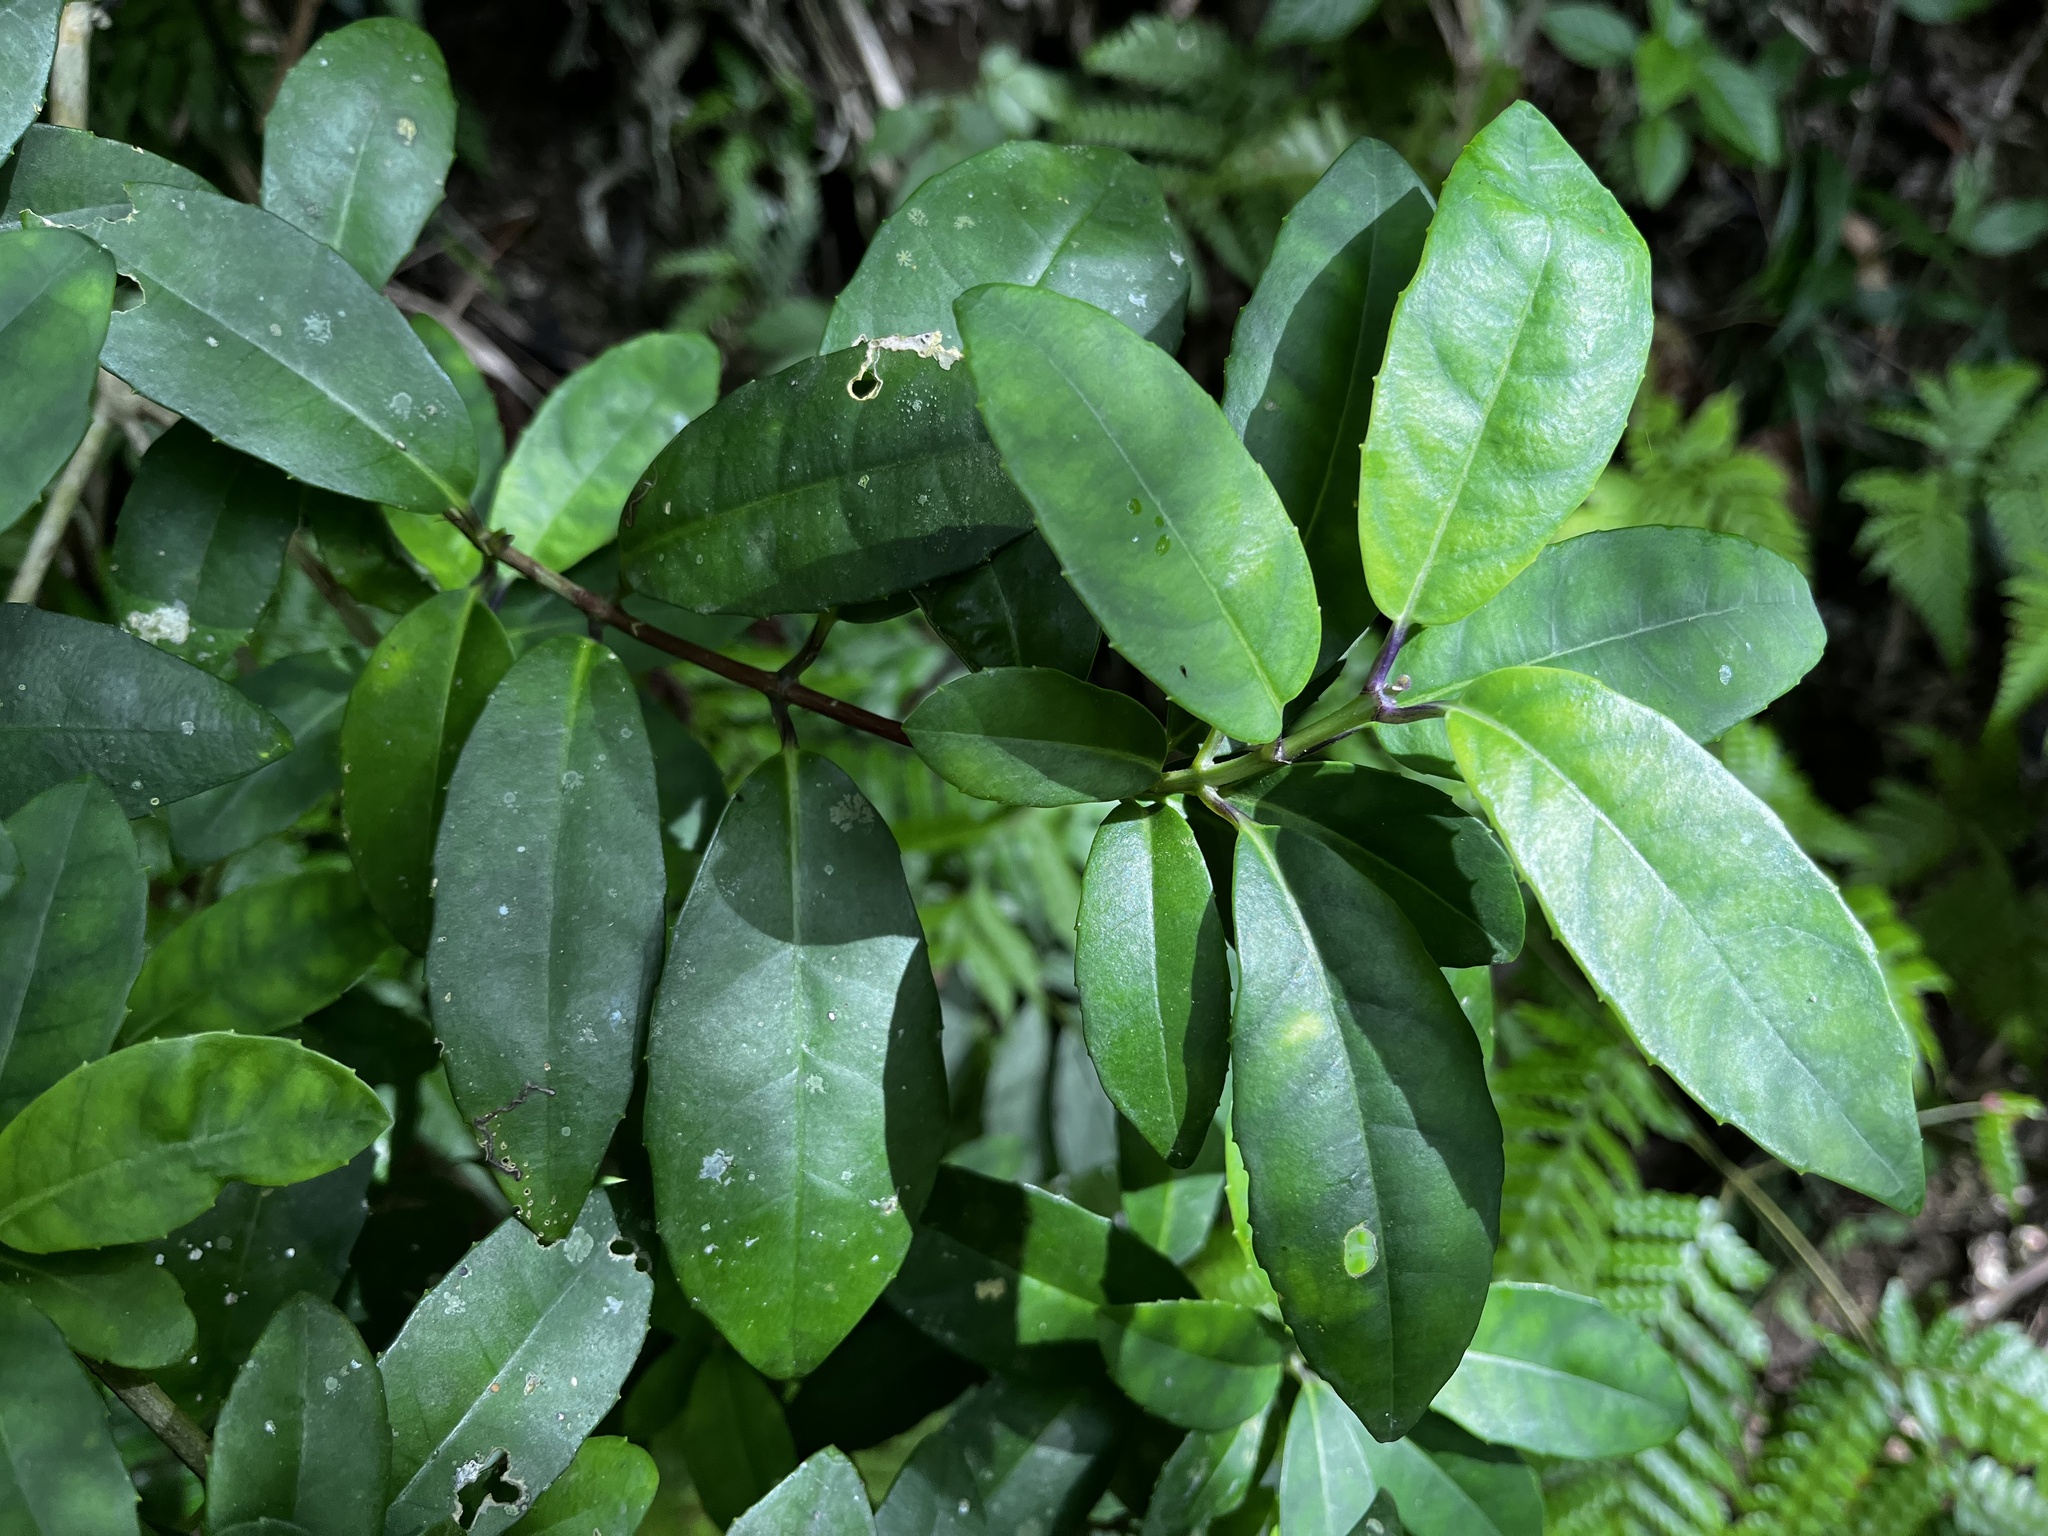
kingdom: Plantae
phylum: Tracheophyta
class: Magnoliopsida
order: Cornales
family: Hydrangeaceae
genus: Hydrangea
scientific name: Hydrangea chinensis
